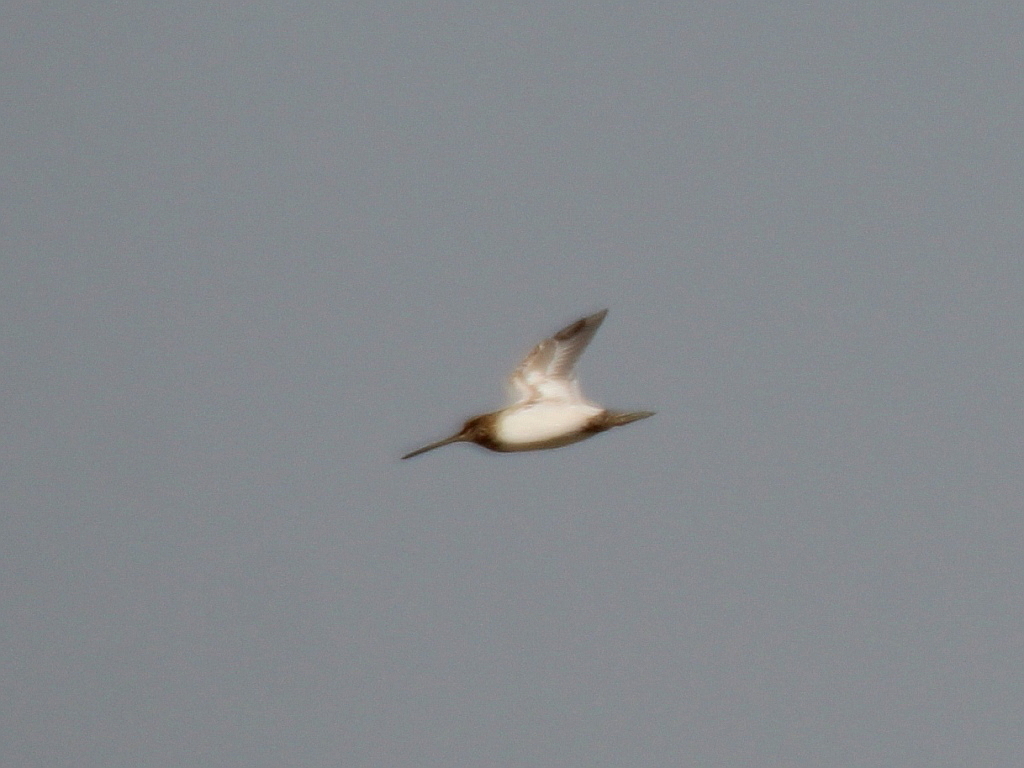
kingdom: Animalia
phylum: Chordata
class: Aves
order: Charadriiformes
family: Scolopacidae
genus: Gallinago
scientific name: Gallinago gallinago
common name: Common snipe
